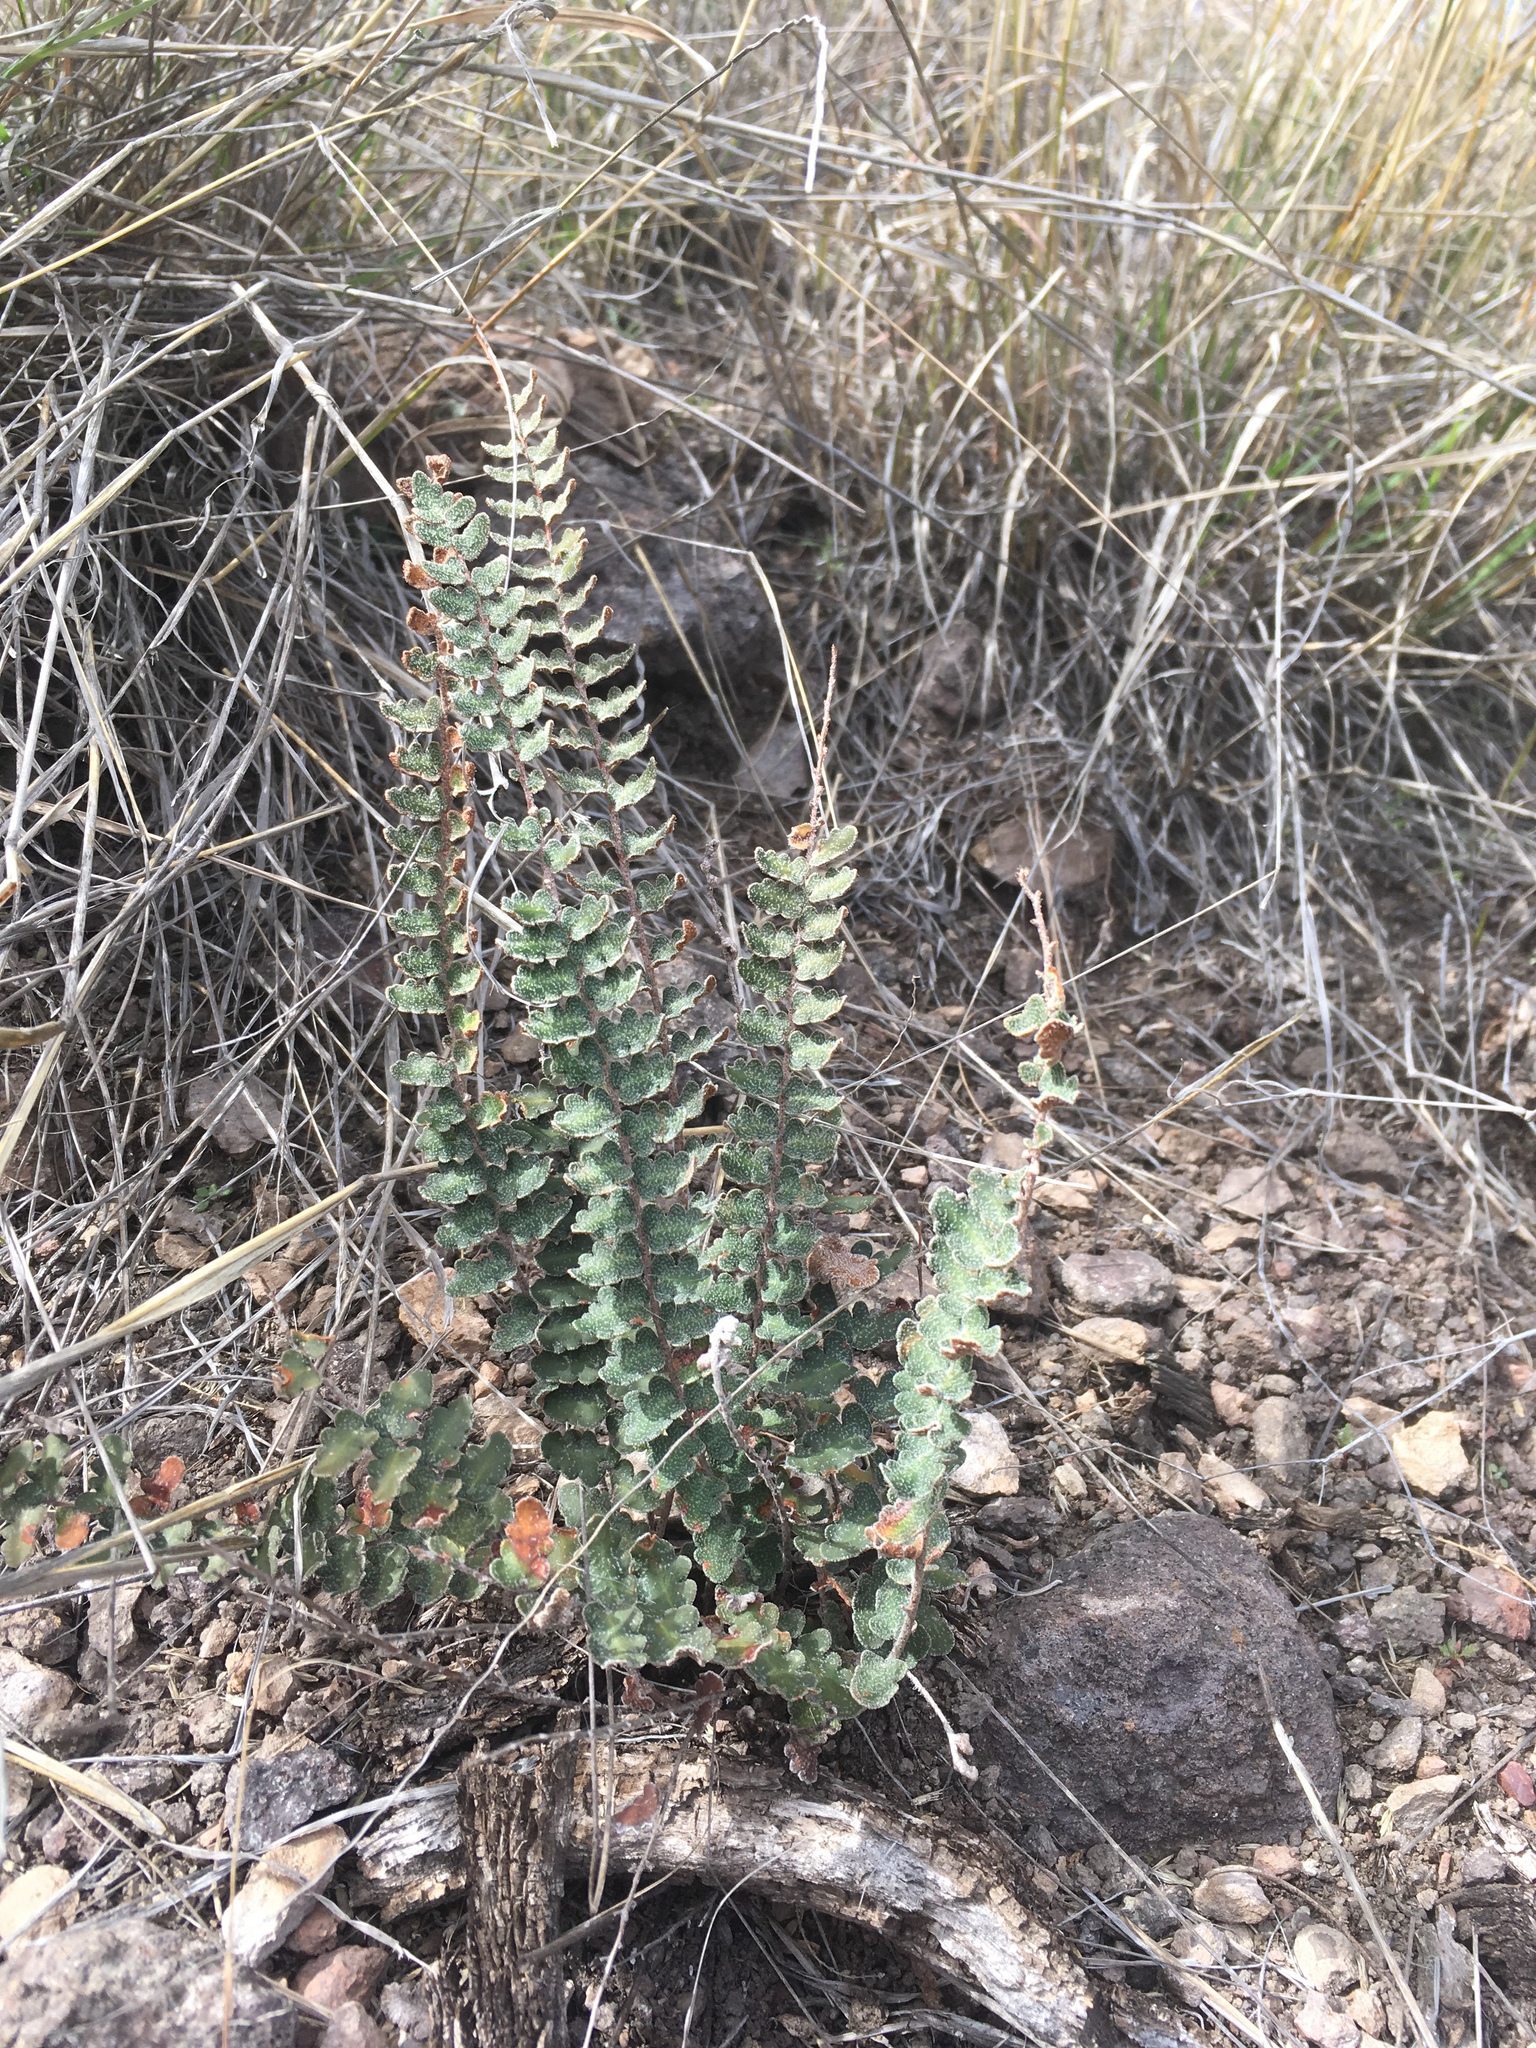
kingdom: Plantae
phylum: Tracheophyta
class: Polypodiopsida
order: Polypodiales
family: Pteridaceae
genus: Astrolepis
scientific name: Astrolepis sinuata
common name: Wavy scaly cloakfern
